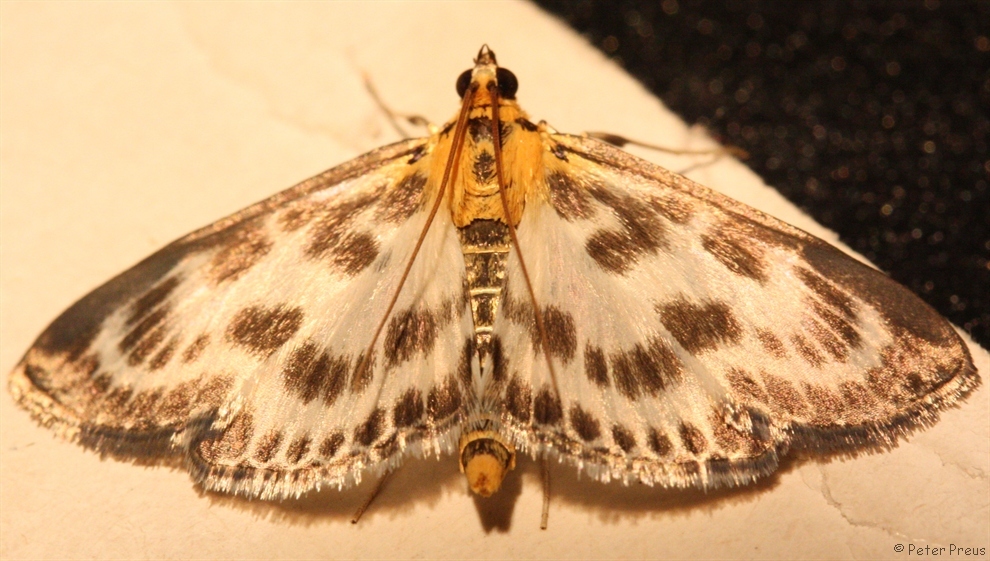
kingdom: Animalia
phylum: Arthropoda
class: Insecta
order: Lepidoptera
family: Crambidae
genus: Anania
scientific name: Anania hortulata
